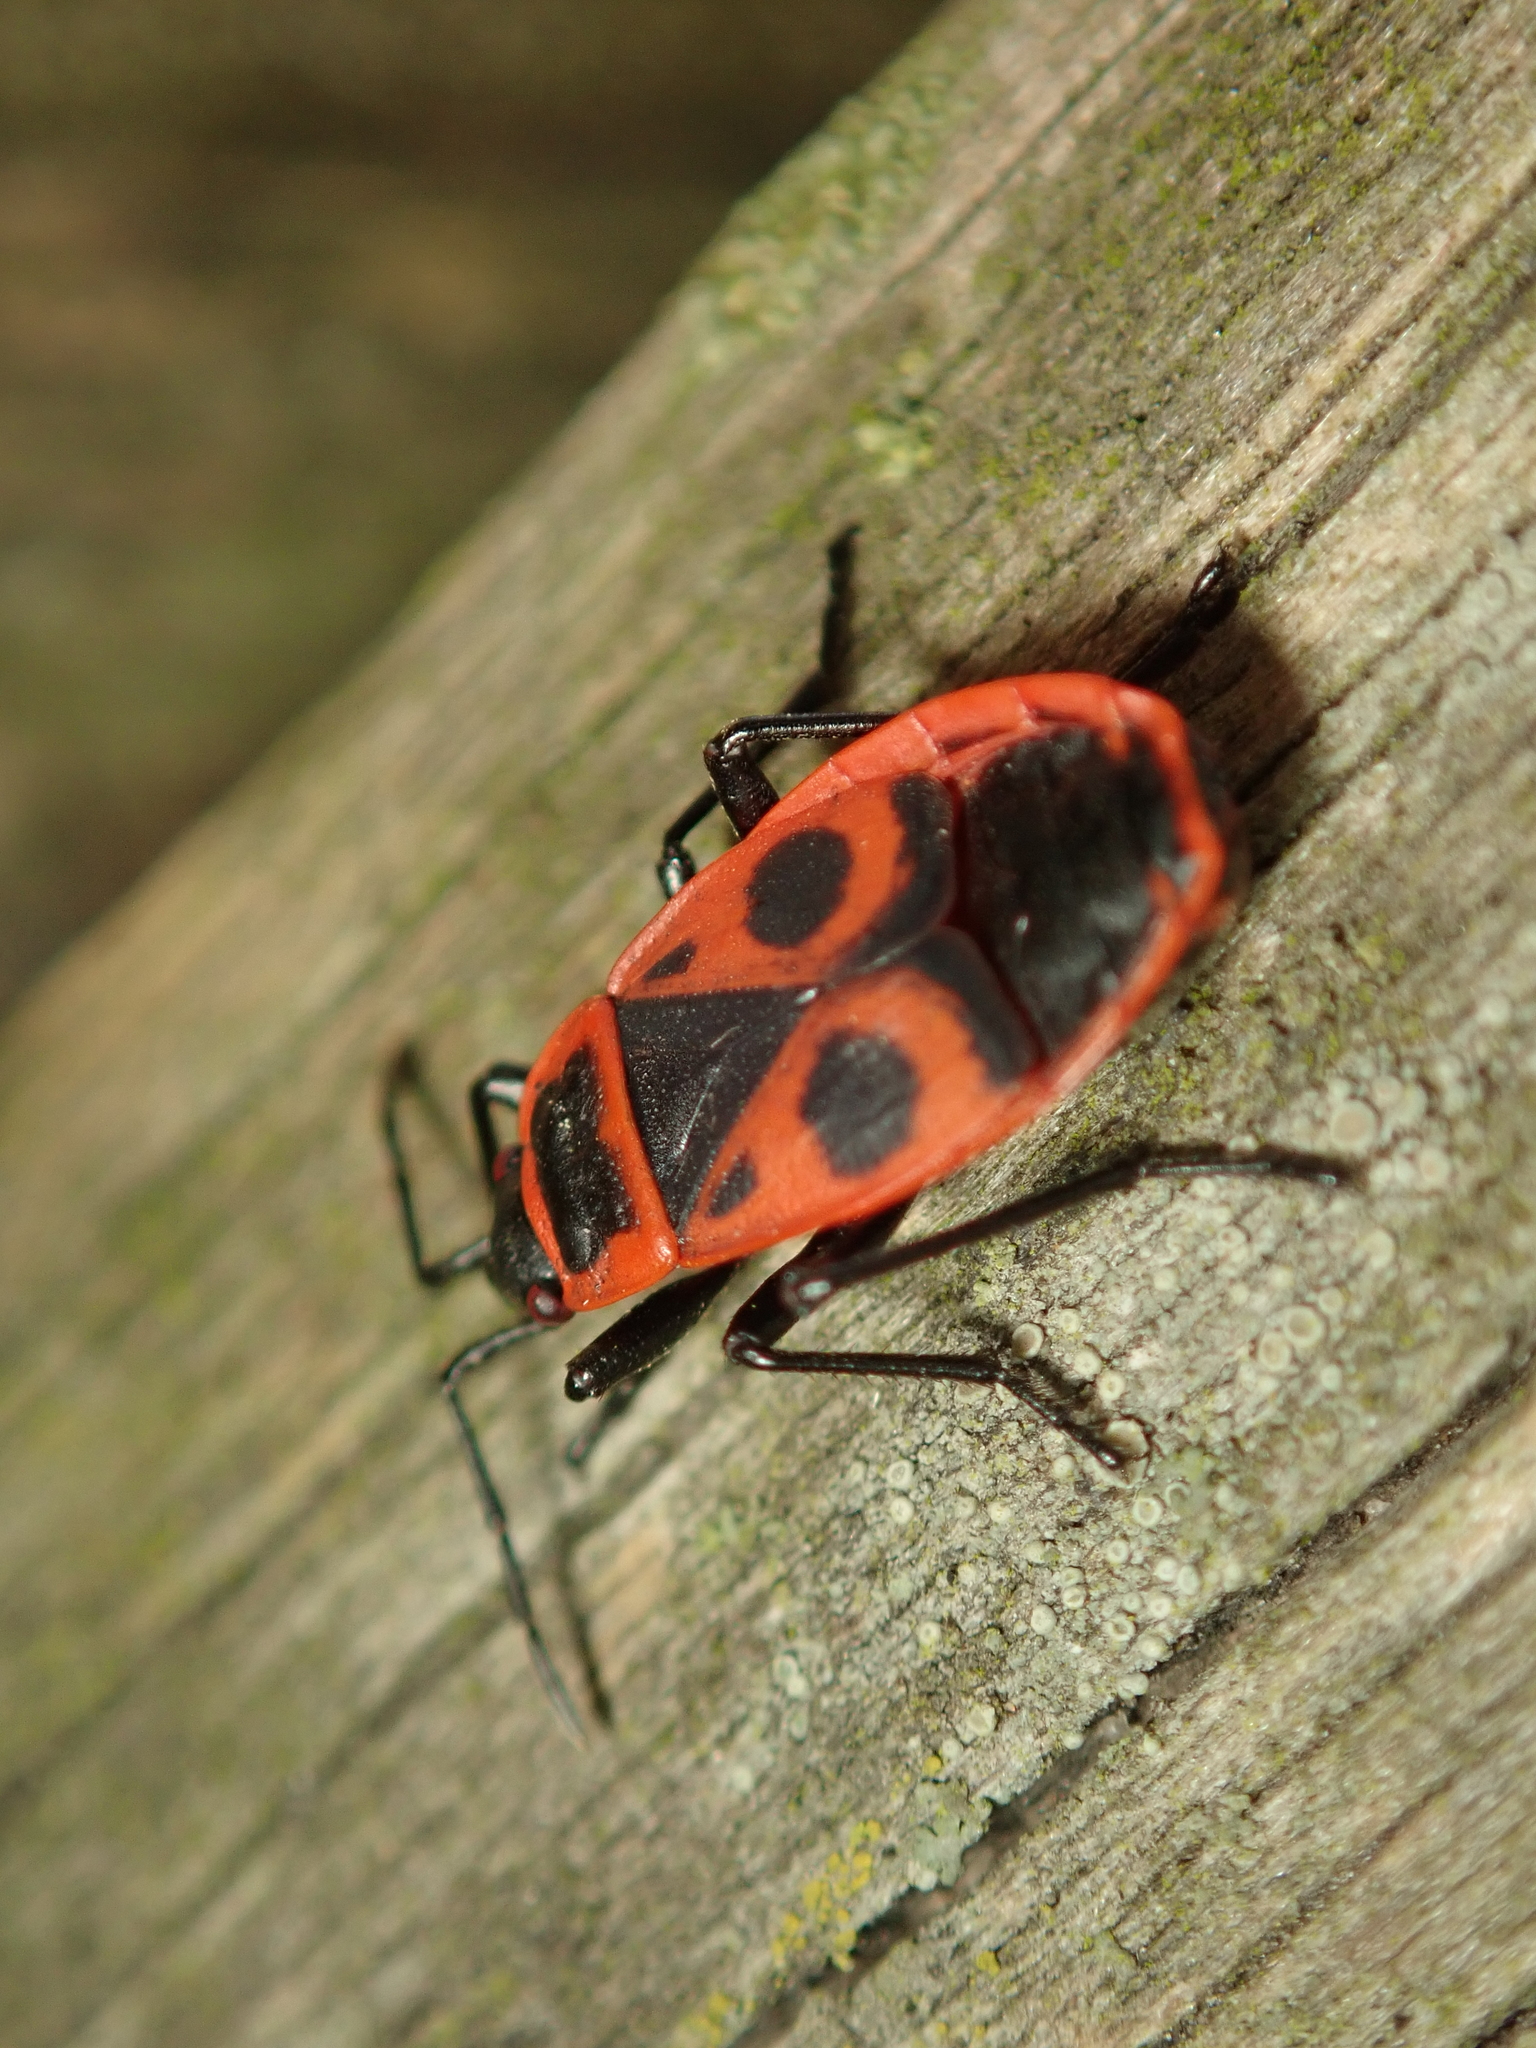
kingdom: Animalia
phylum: Arthropoda
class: Insecta
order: Hemiptera
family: Pyrrhocoridae
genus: Pyrrhocoris
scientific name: Pyrrhocoris apterus
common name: Firebug
